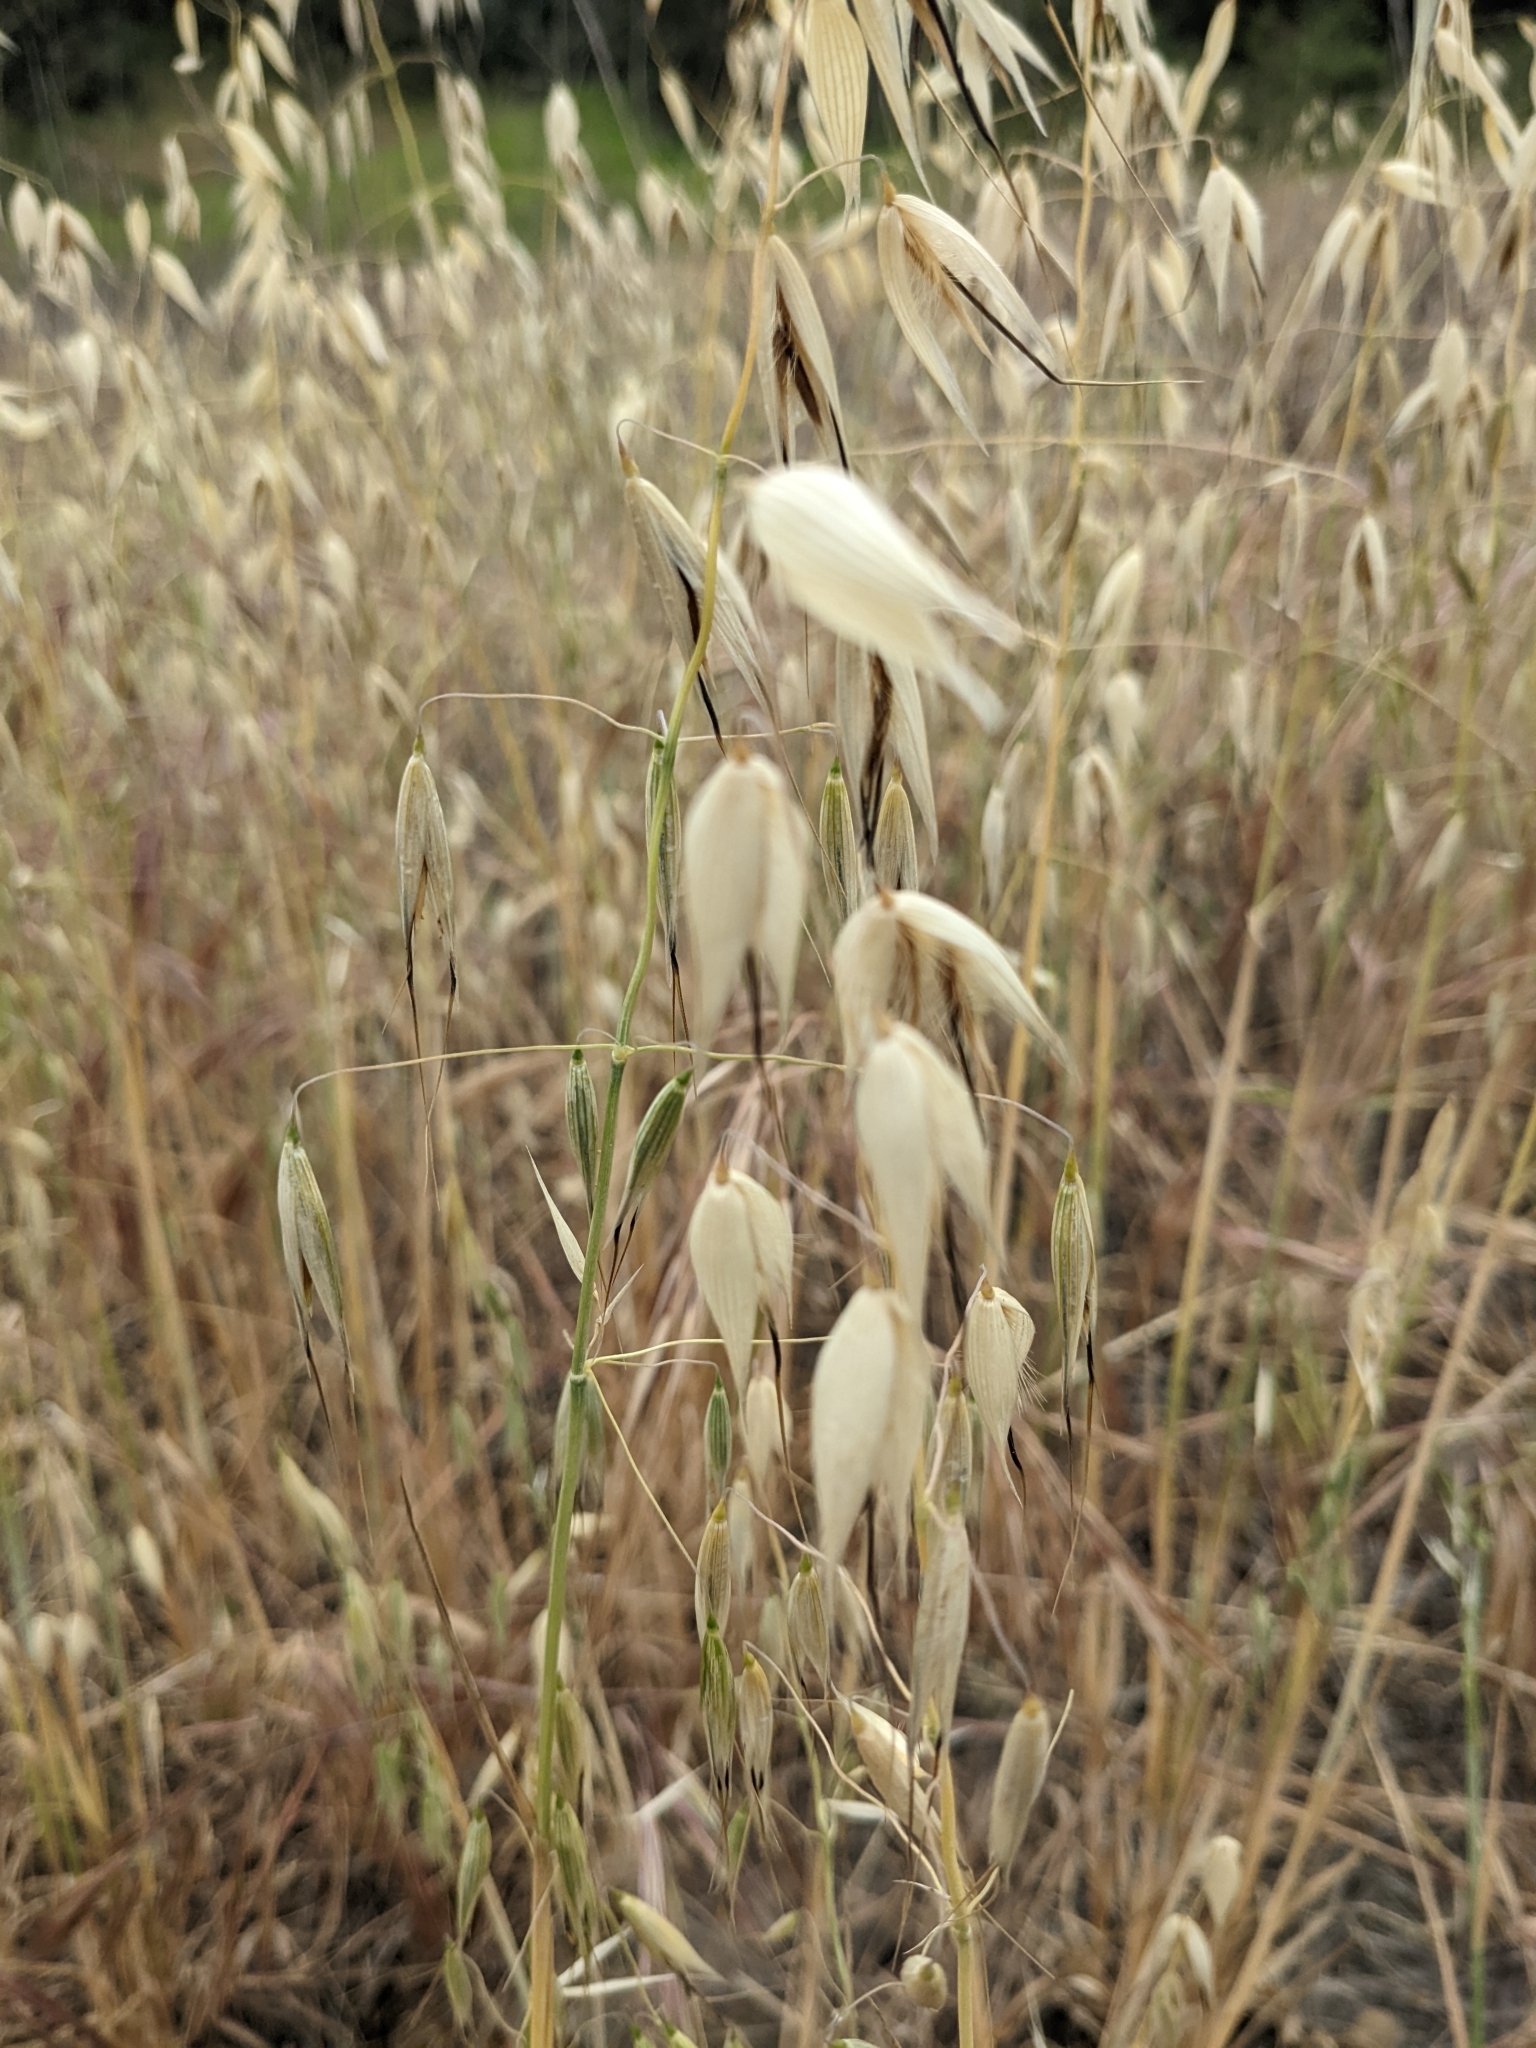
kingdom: Plantae
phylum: Tracheophyta
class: Liliopsida
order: Poales
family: Poaceae
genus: Avena
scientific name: Avena fatua
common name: Wild oat
